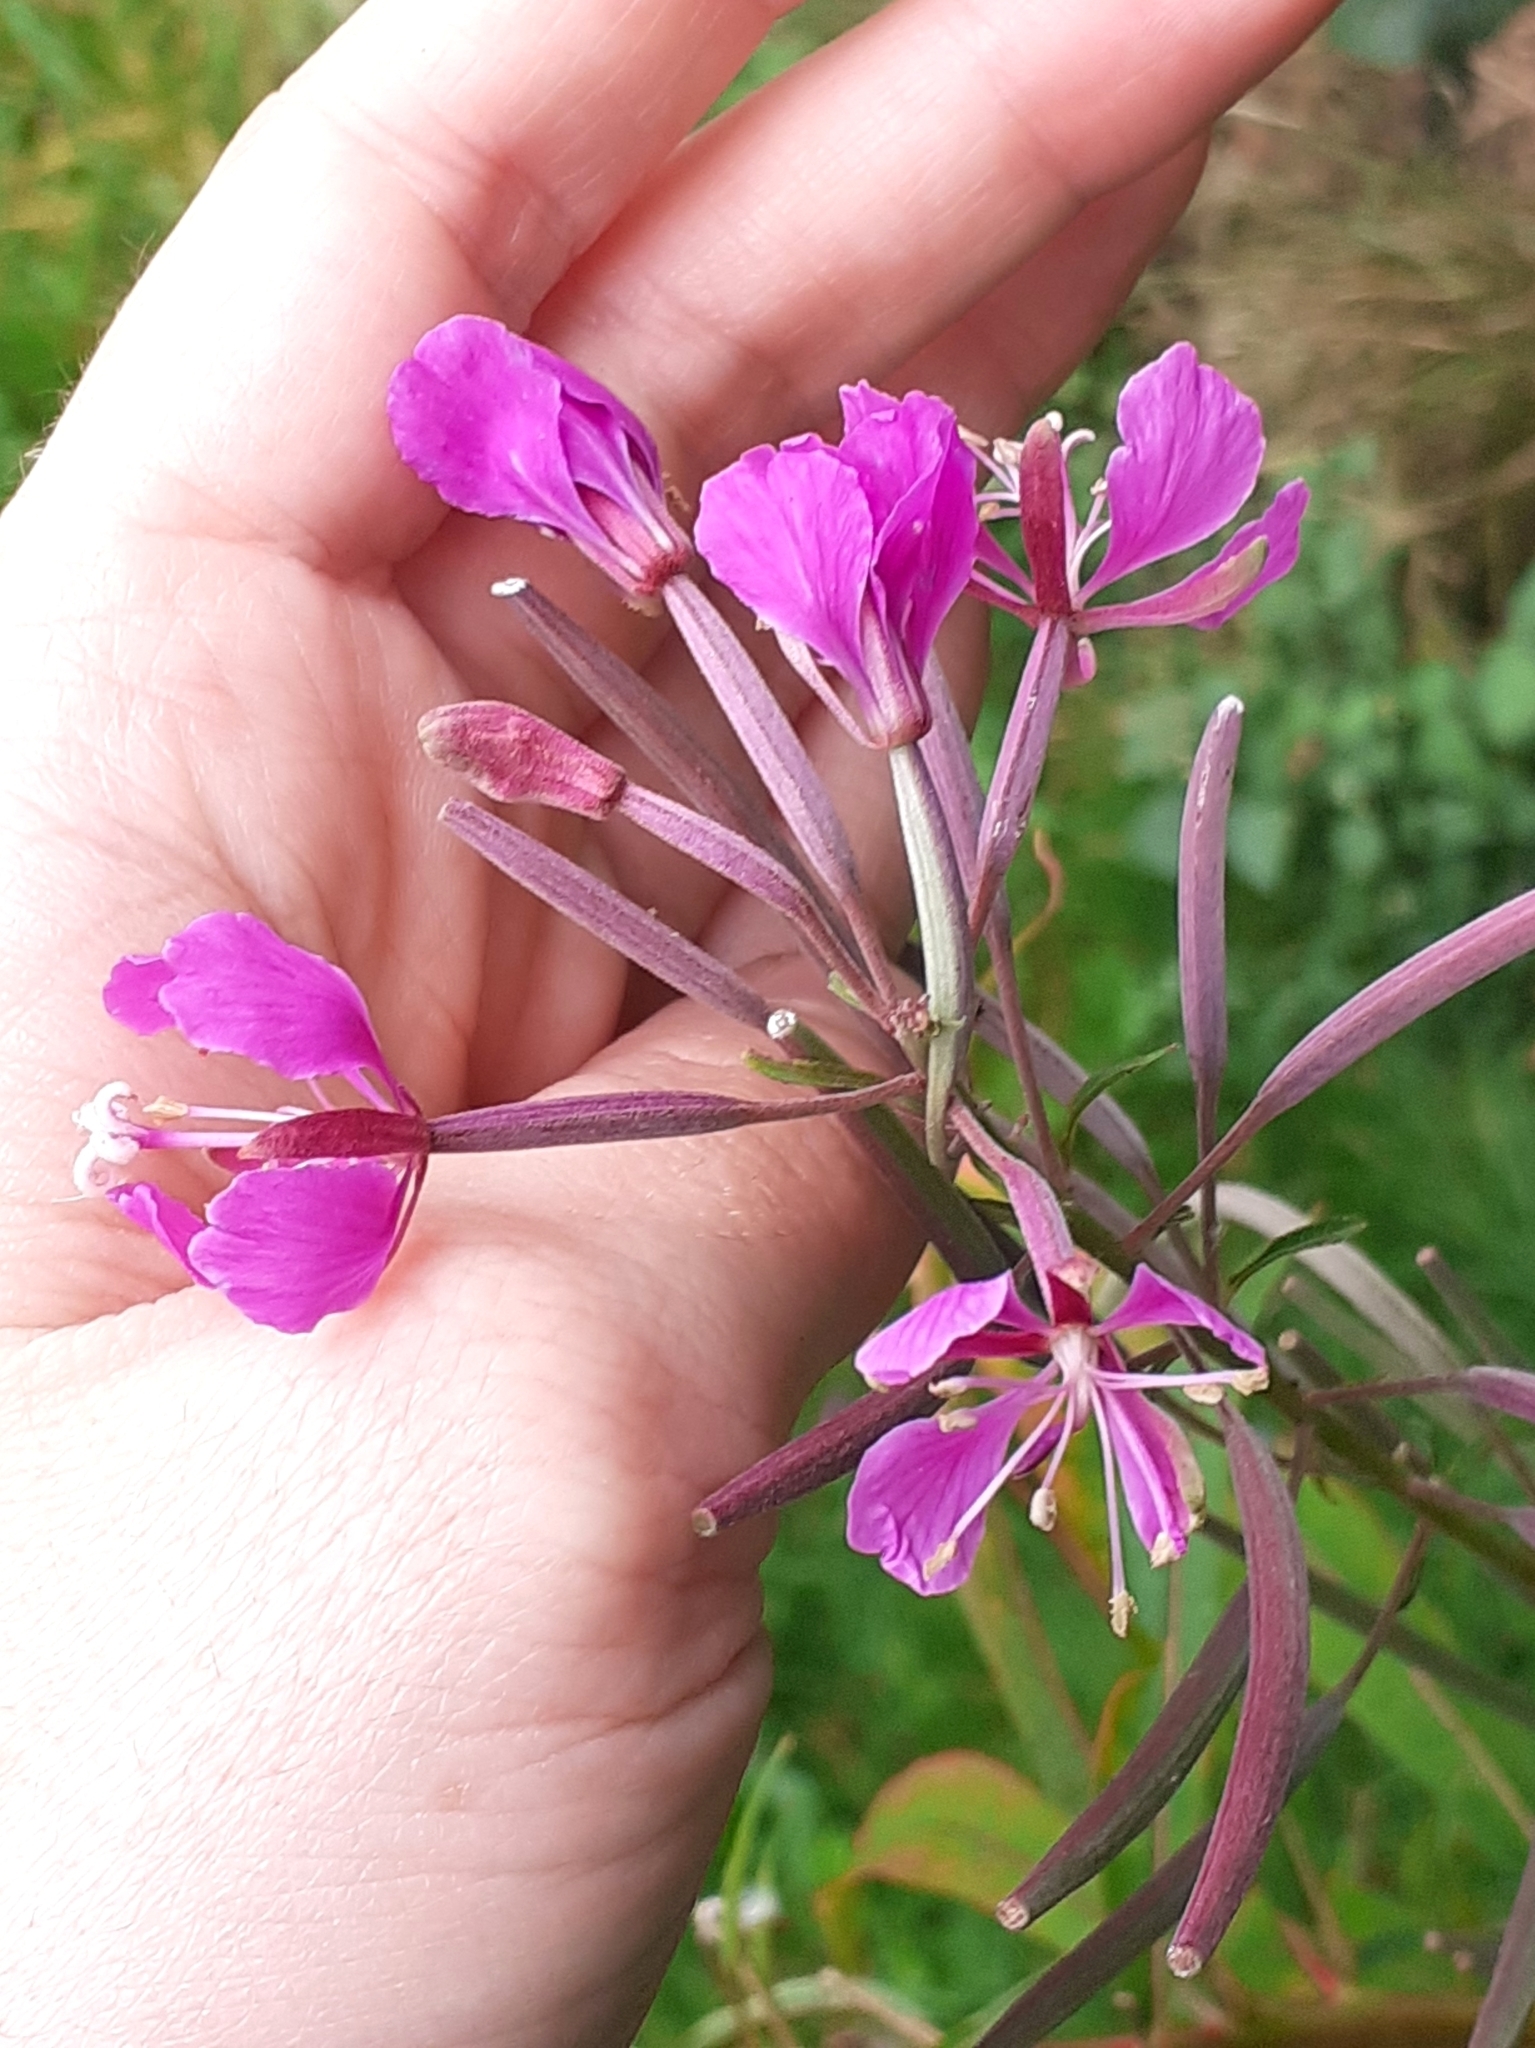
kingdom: Plantae
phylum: Tracheophyta
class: Magnoliopsida
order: Myrtales
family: Onagraceae
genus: Chamaenerion
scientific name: Chamaenerion angustifolium
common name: Fireweed
